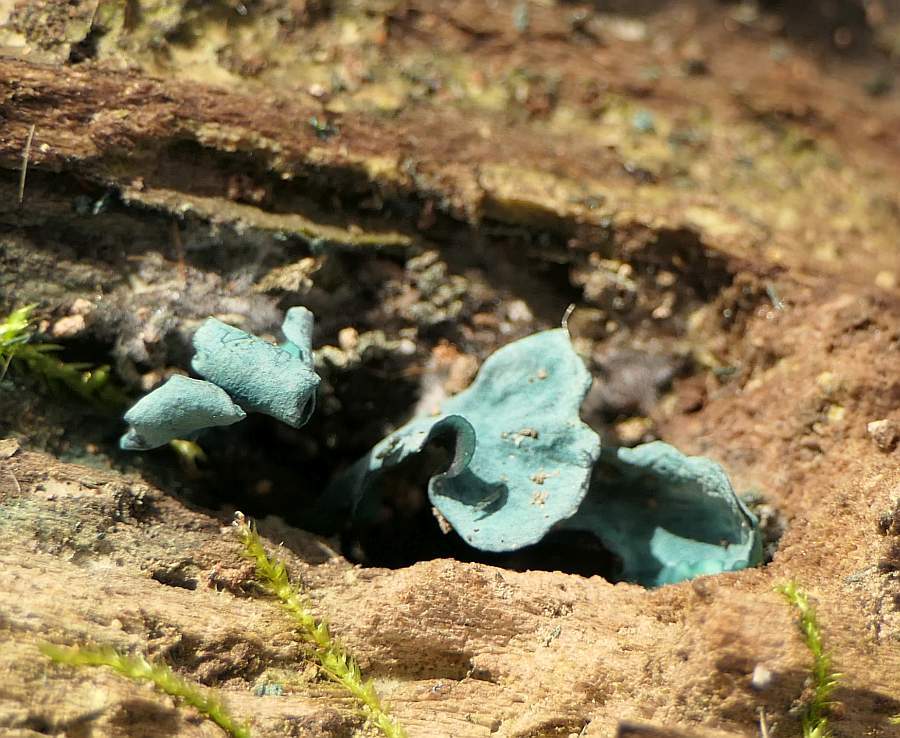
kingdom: Fungi
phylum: Ascomycota
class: Leotiomycetes
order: Helotiales
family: Chlorociboriaceae
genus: Chlorociboria
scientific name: Chlorociboria aeruginascens
